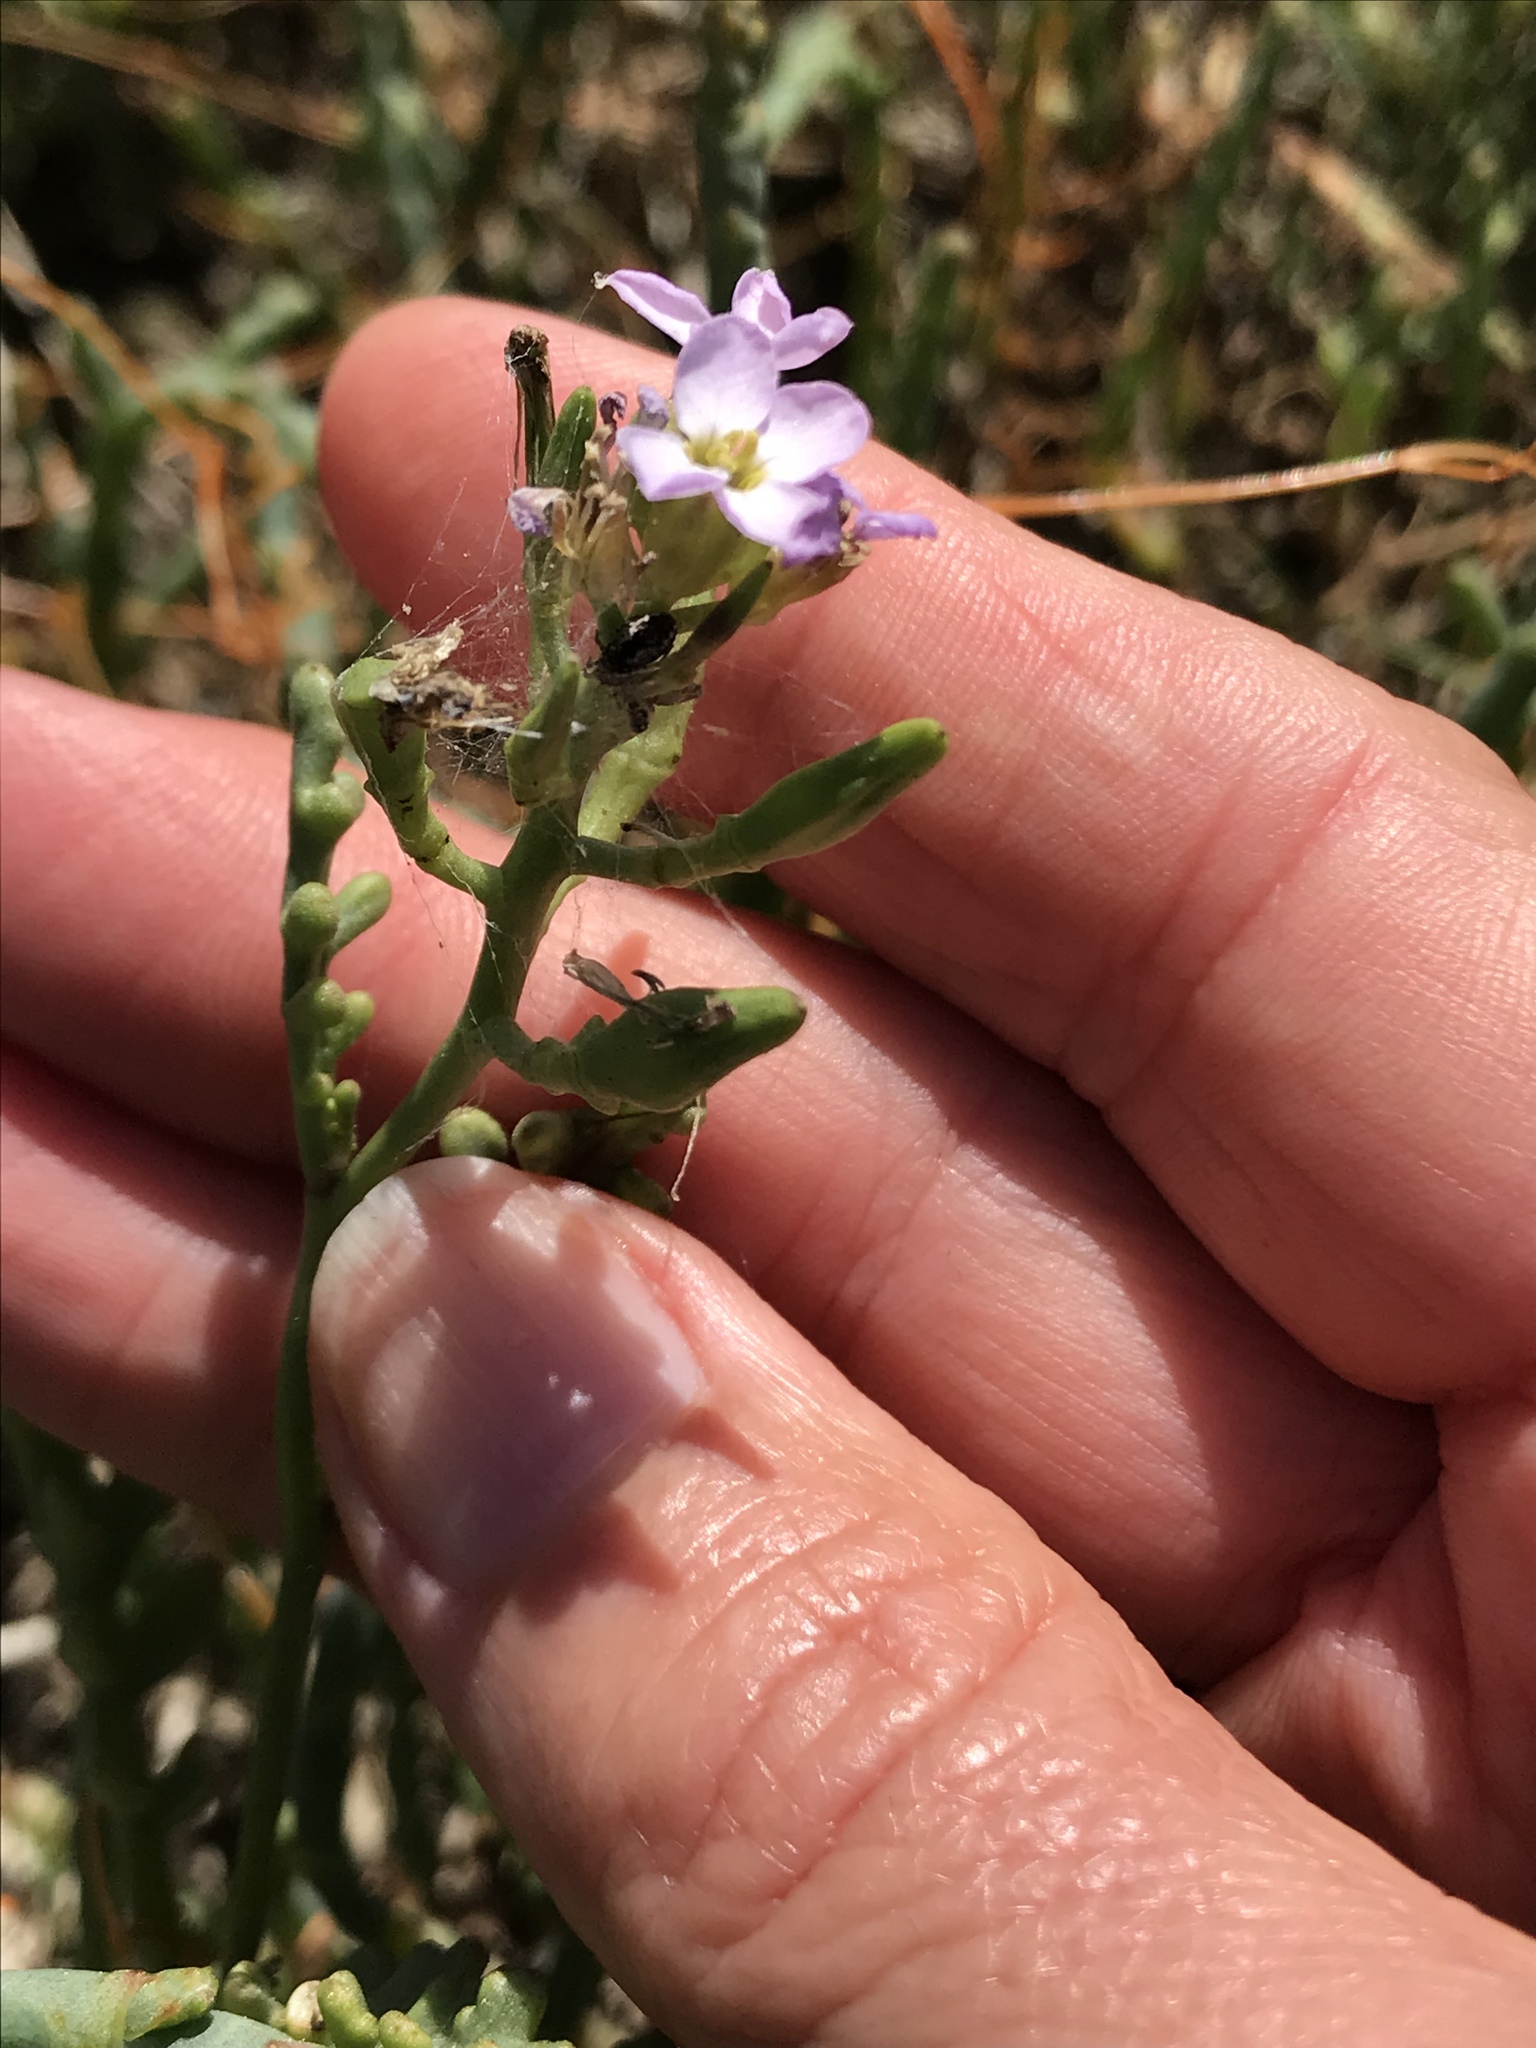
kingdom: Plantae
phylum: Tracheophyta
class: Magnoliopsida
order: Brassicales
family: Brassicaceae
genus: Cakile
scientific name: Cakile maritima
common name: Sea rocket
